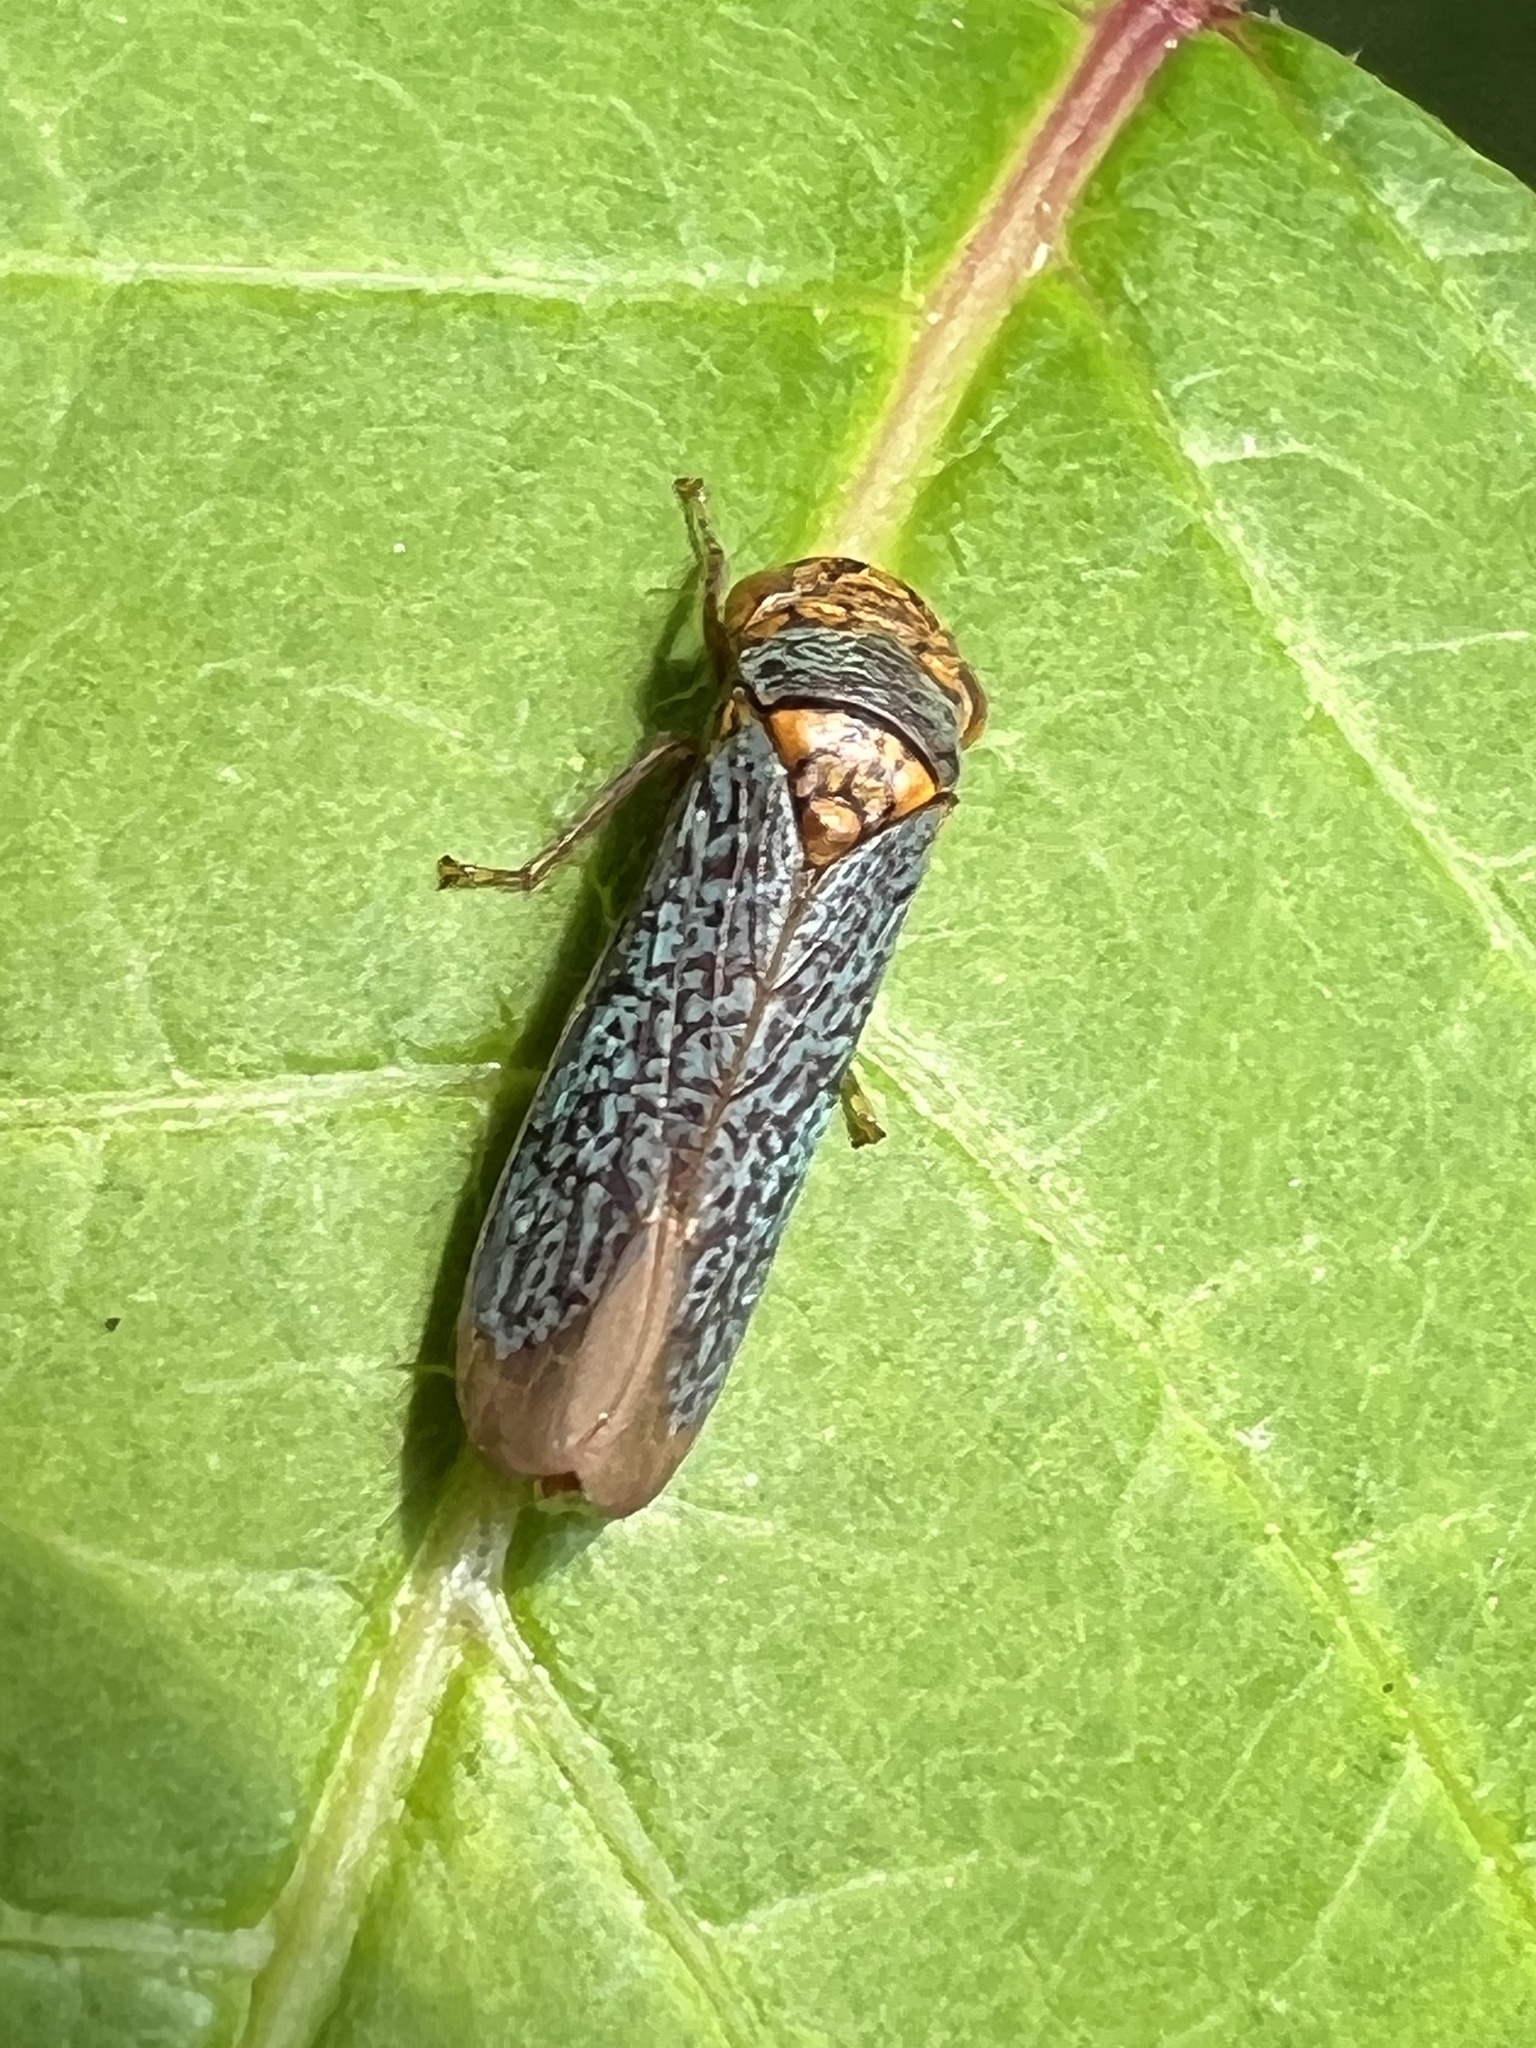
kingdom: Animalia
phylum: Arthropoda
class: Insecta
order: Hemiptera
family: Cicadellidae
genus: Oncometopia
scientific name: Oncometopia orbona
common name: Broad-headed sharpshooter
